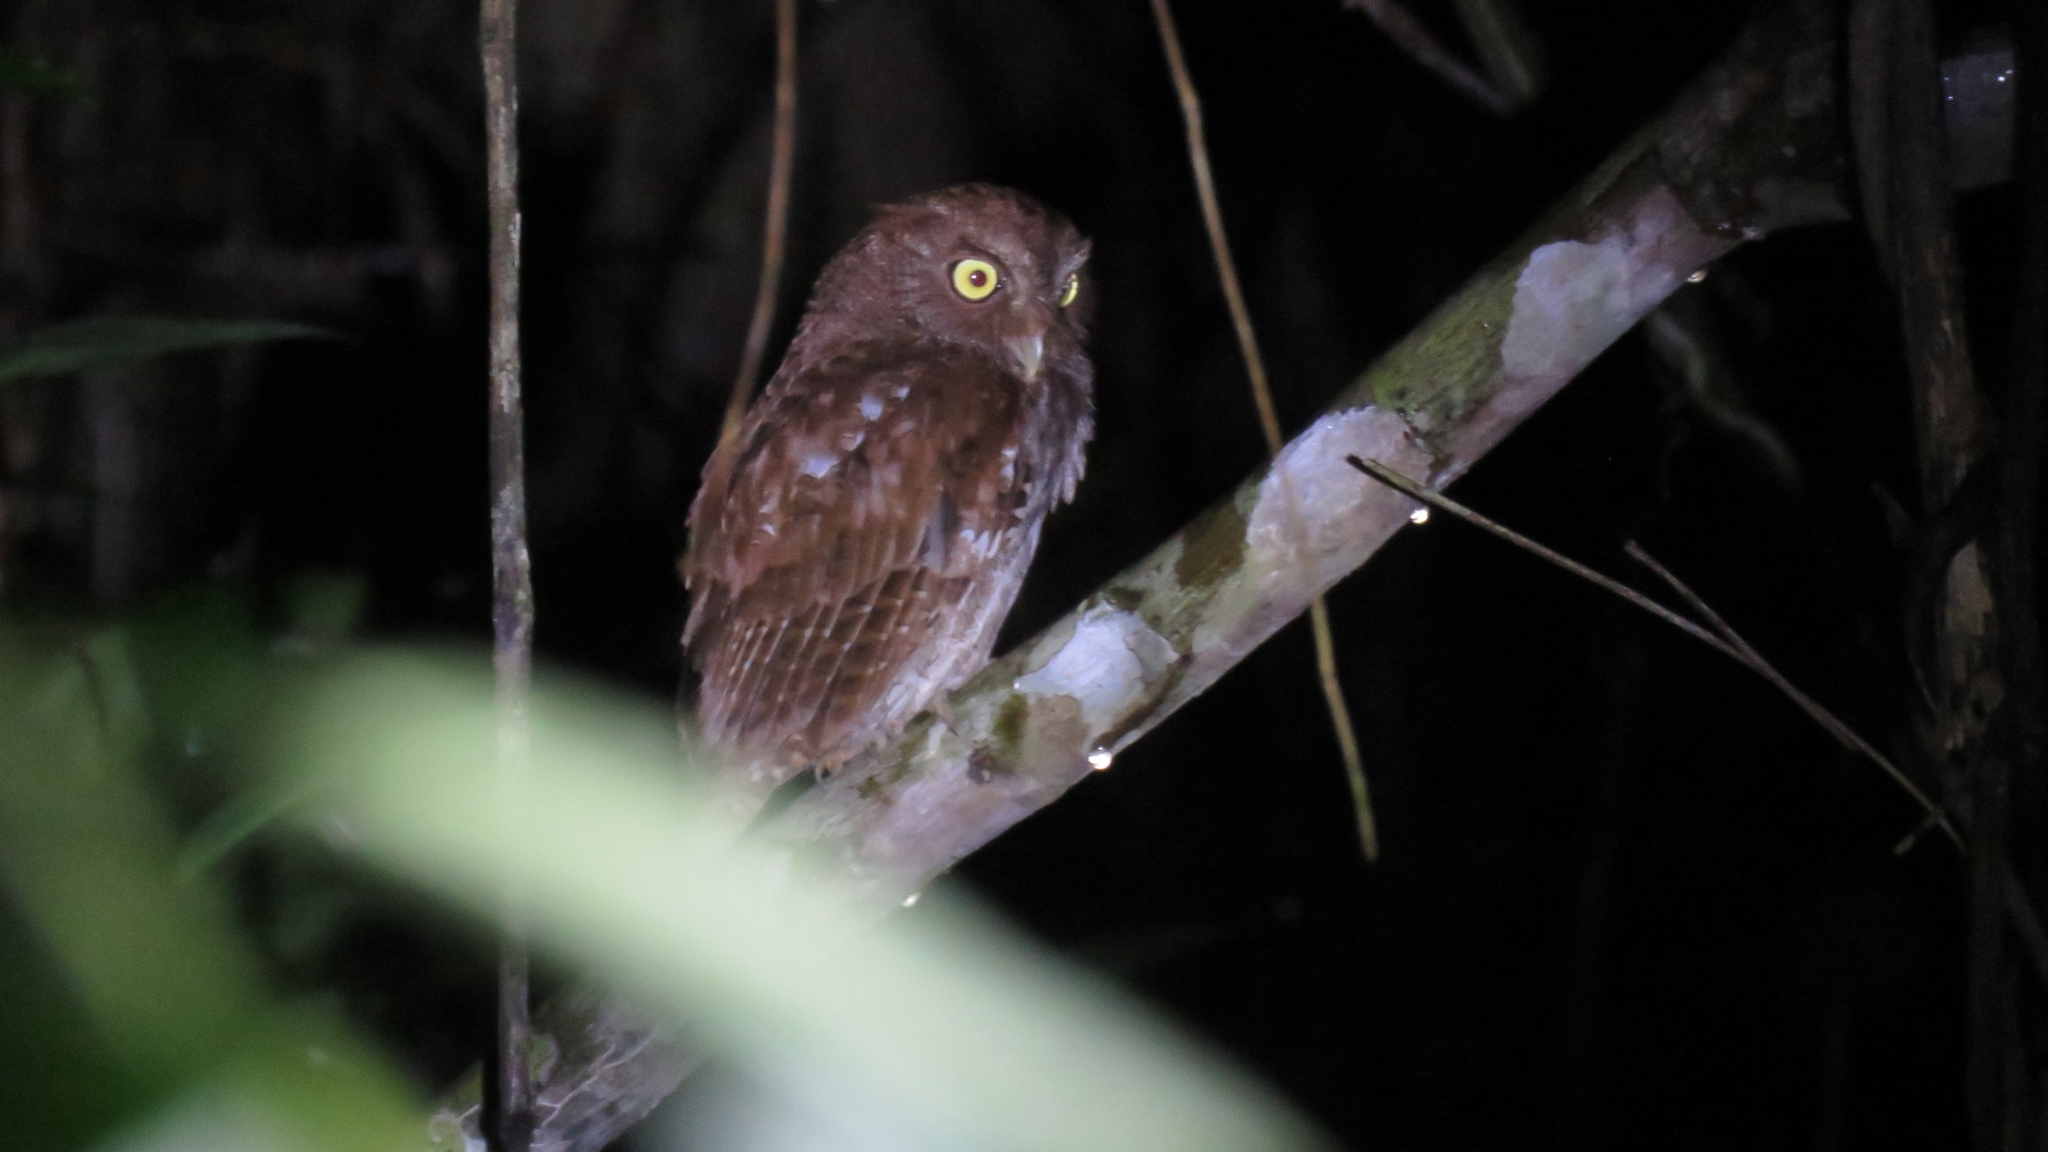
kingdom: Animalia
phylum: Chordata
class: Aves
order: Strigiformes
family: Strigidae
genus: Megascops
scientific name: Megascops guatemalae
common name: Vermiculated screech-owl
